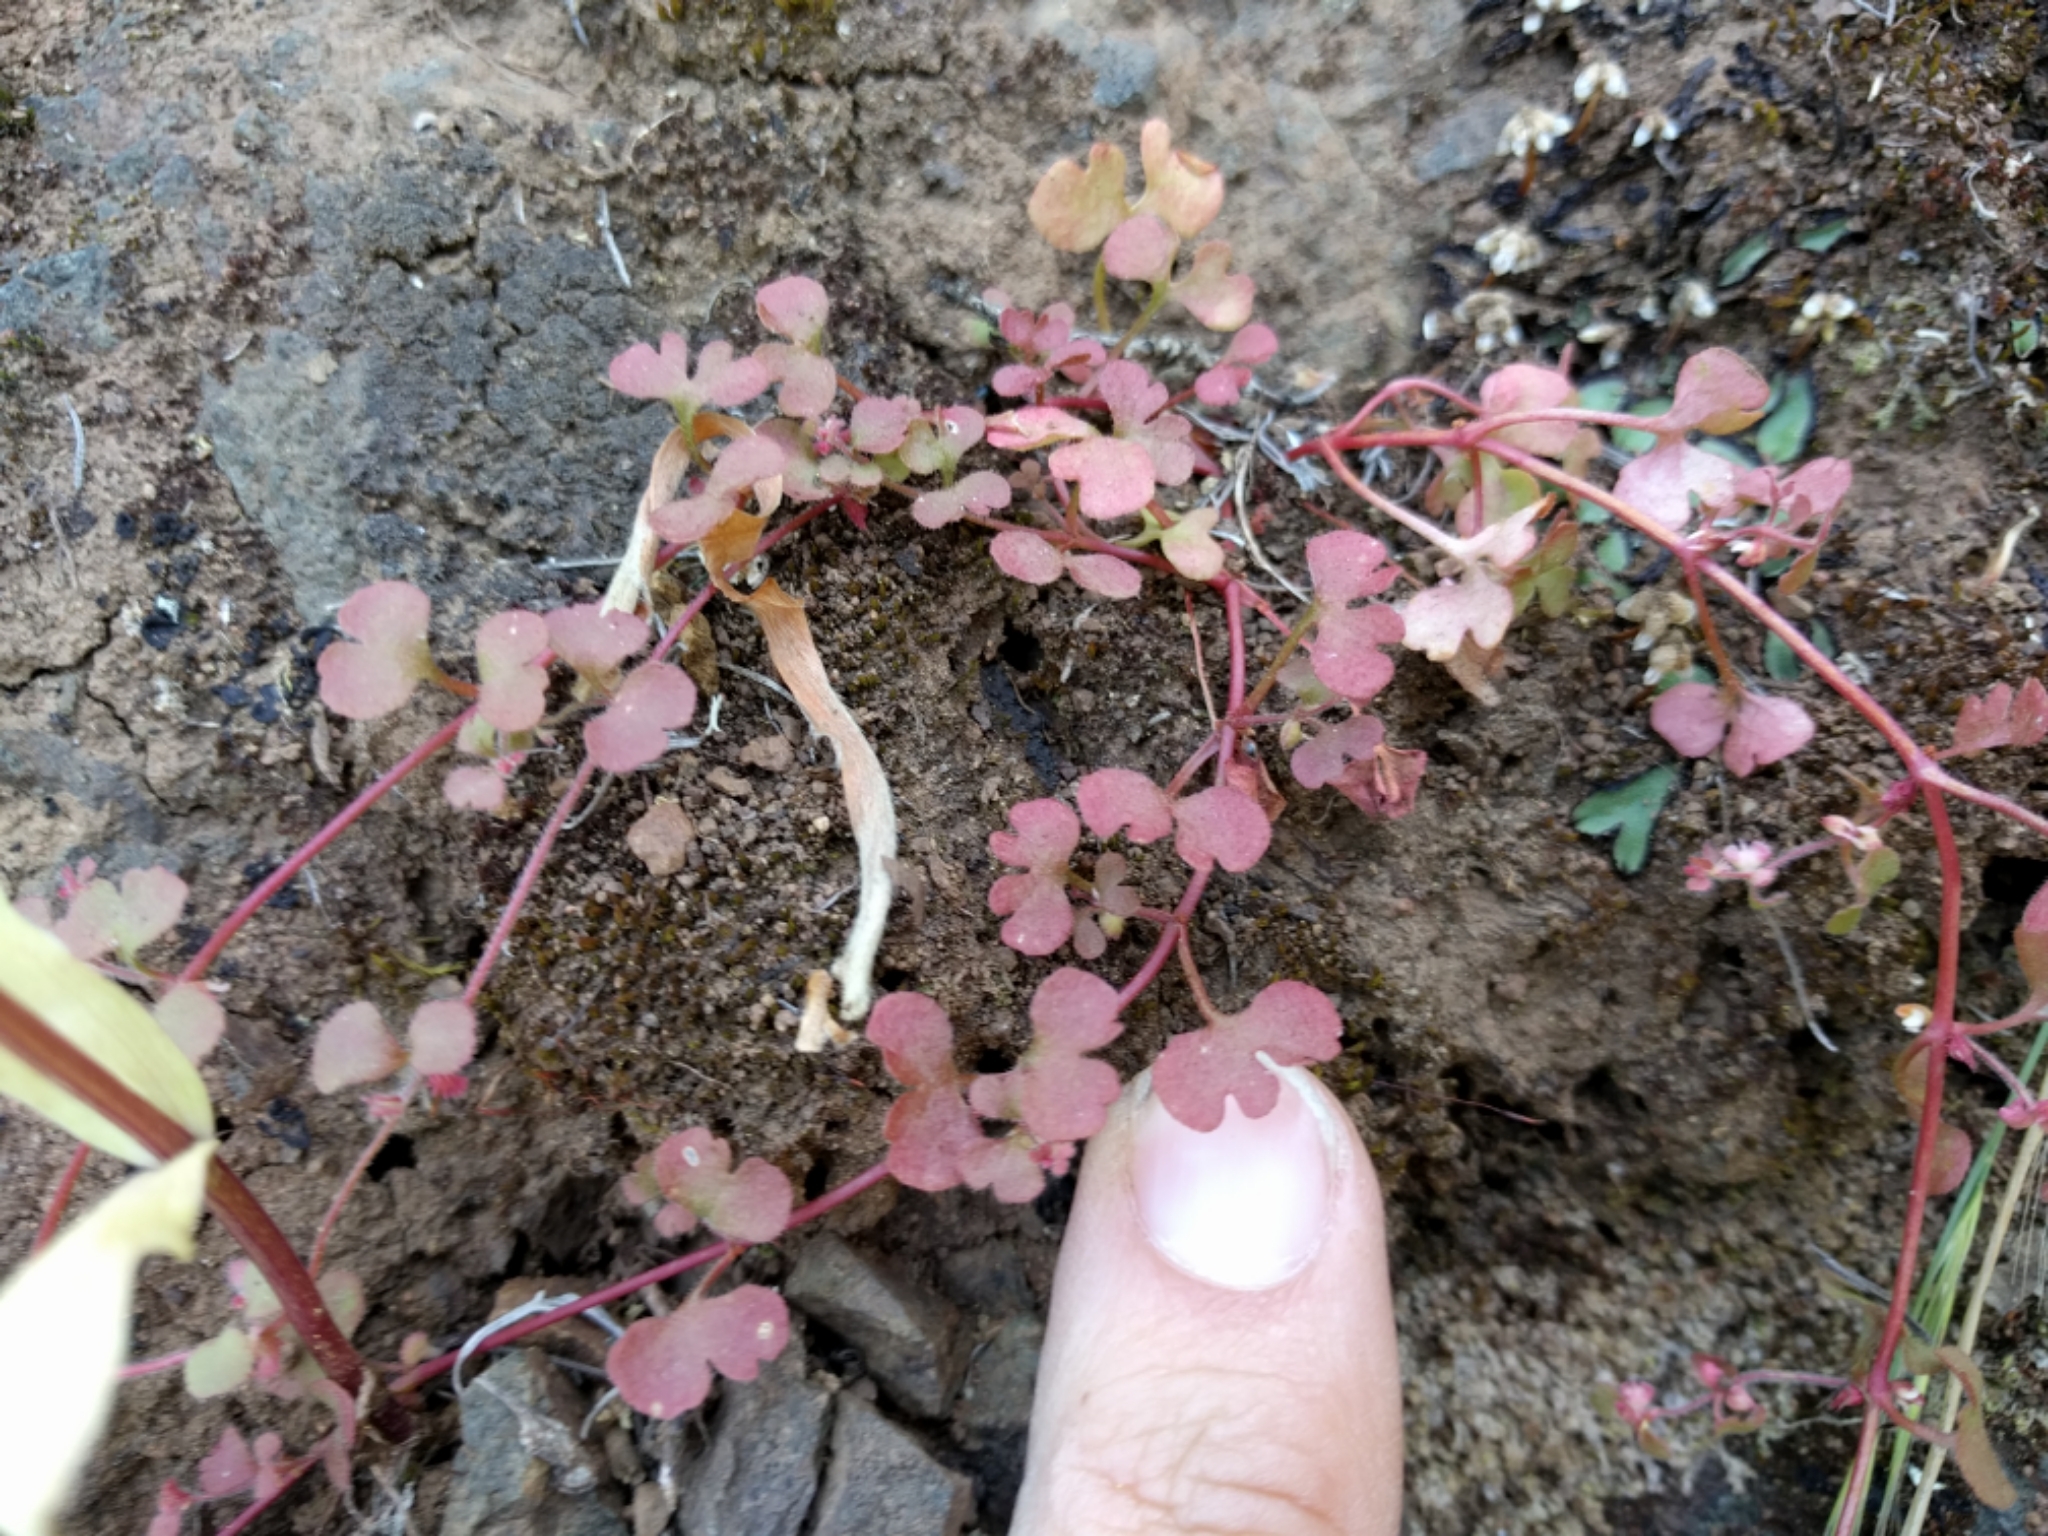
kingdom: Plantae
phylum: Tracheophyta
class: Magnoliopsida
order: Caryophyllales
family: Polygonaceae
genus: Pterostegia
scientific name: Pterostegia drymarioides
